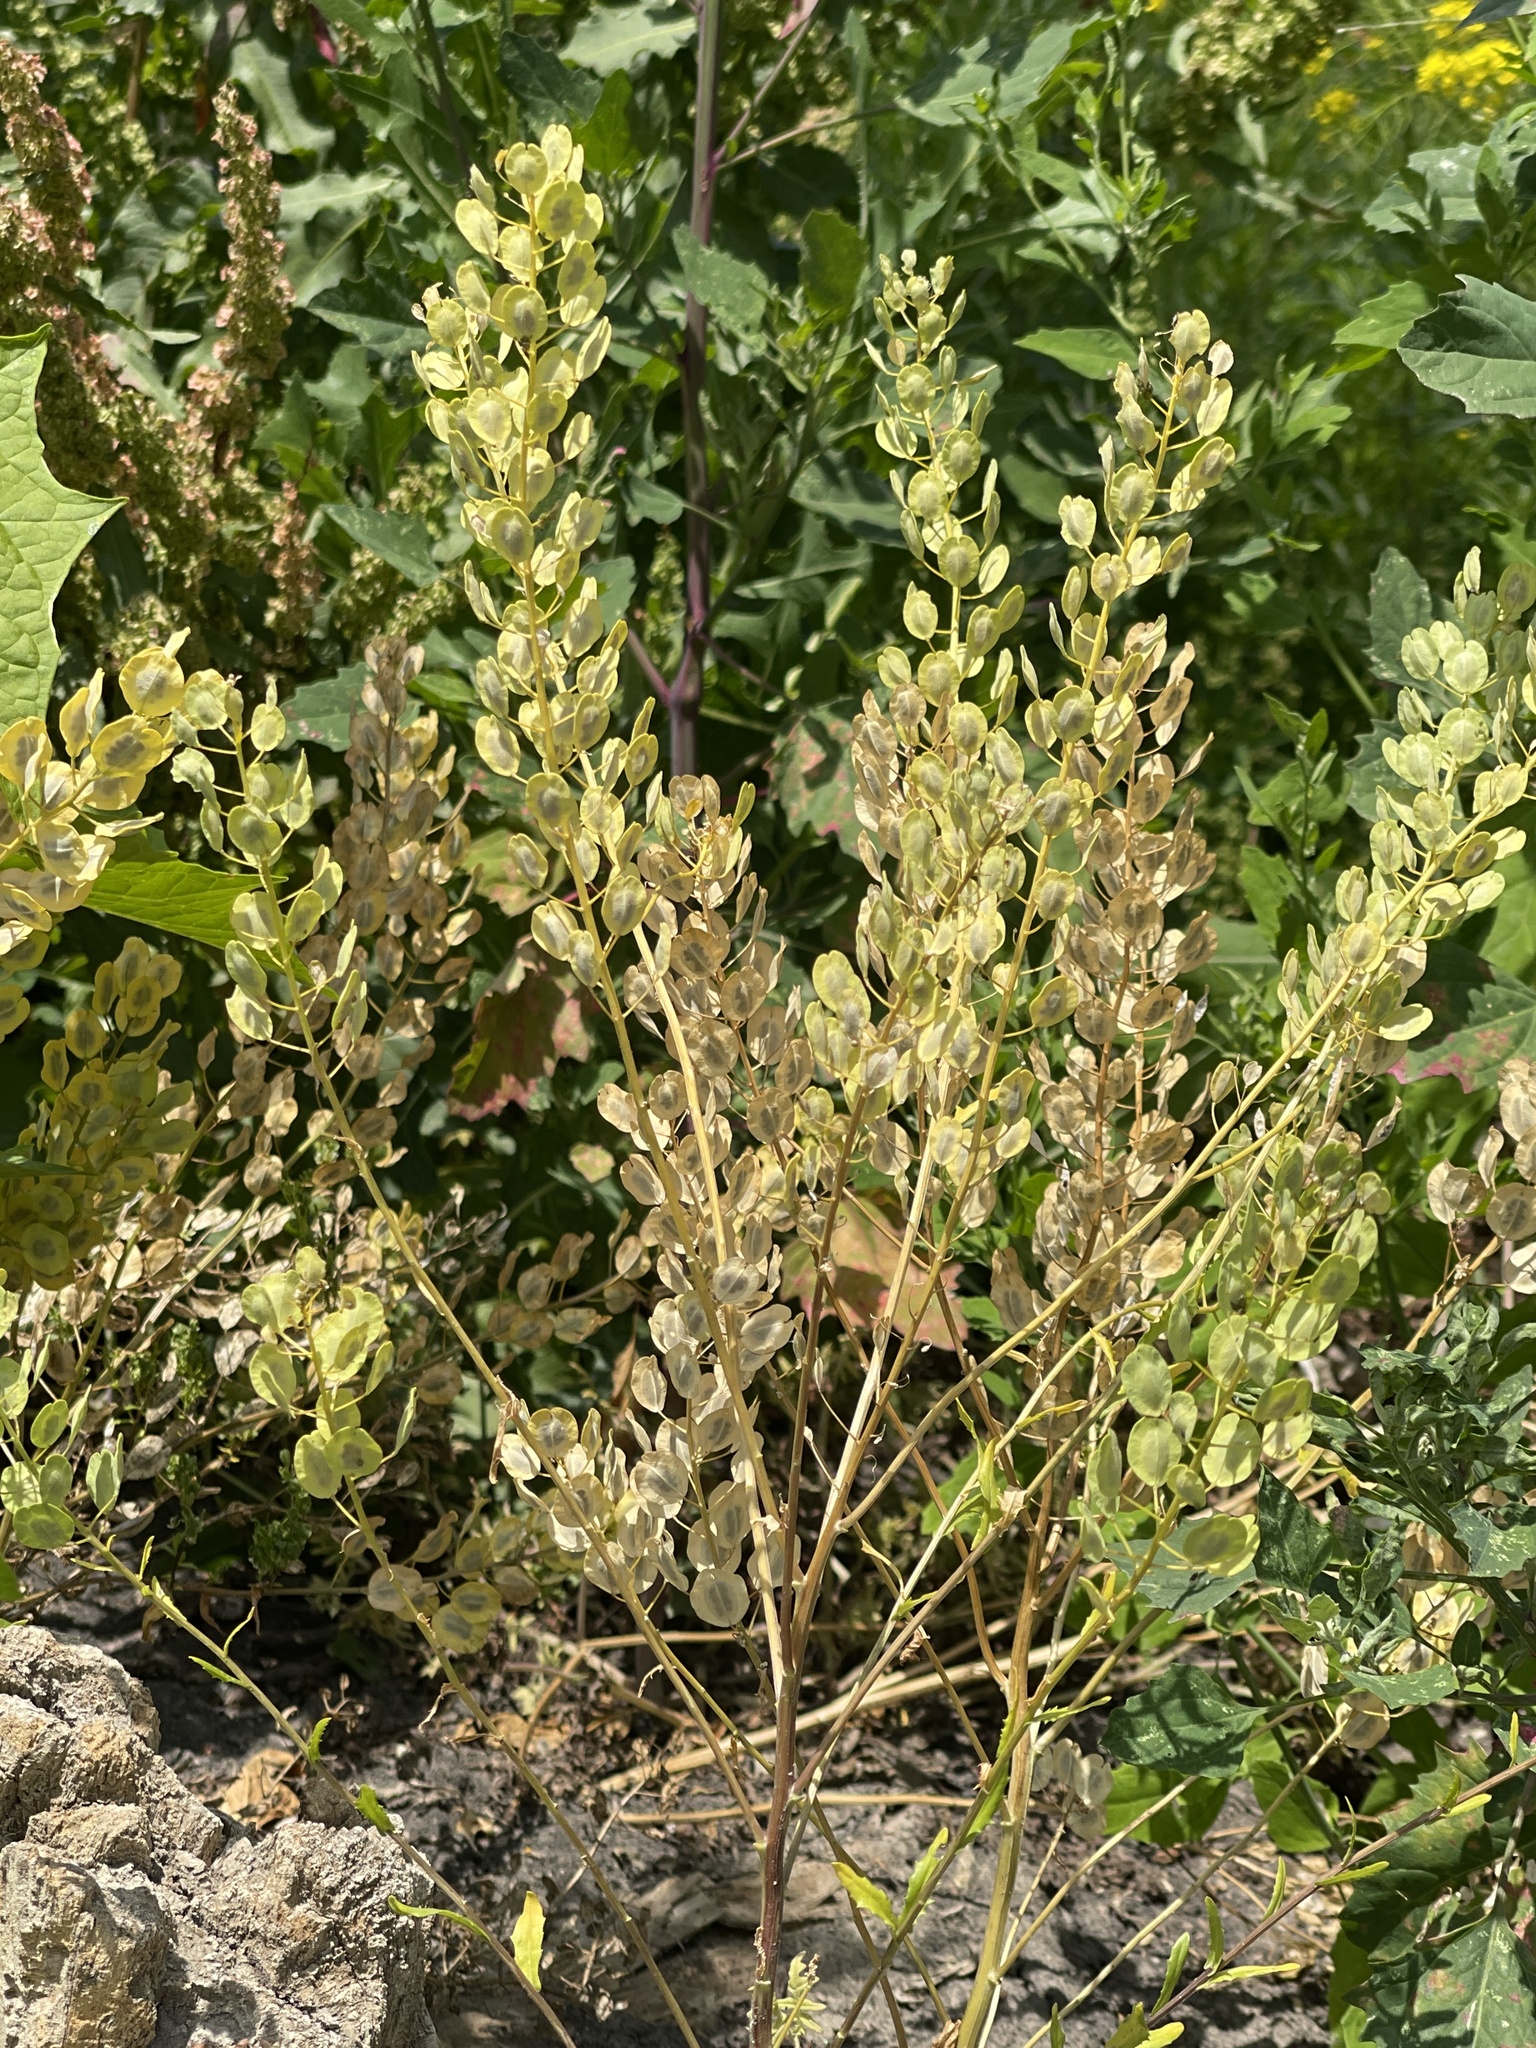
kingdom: Plantae
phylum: Tracheophyta
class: Magnoliopsida
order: Brassicales
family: Brassicaceae
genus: Thlaspi
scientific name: Thlaspi arvense
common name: Field pennycress
